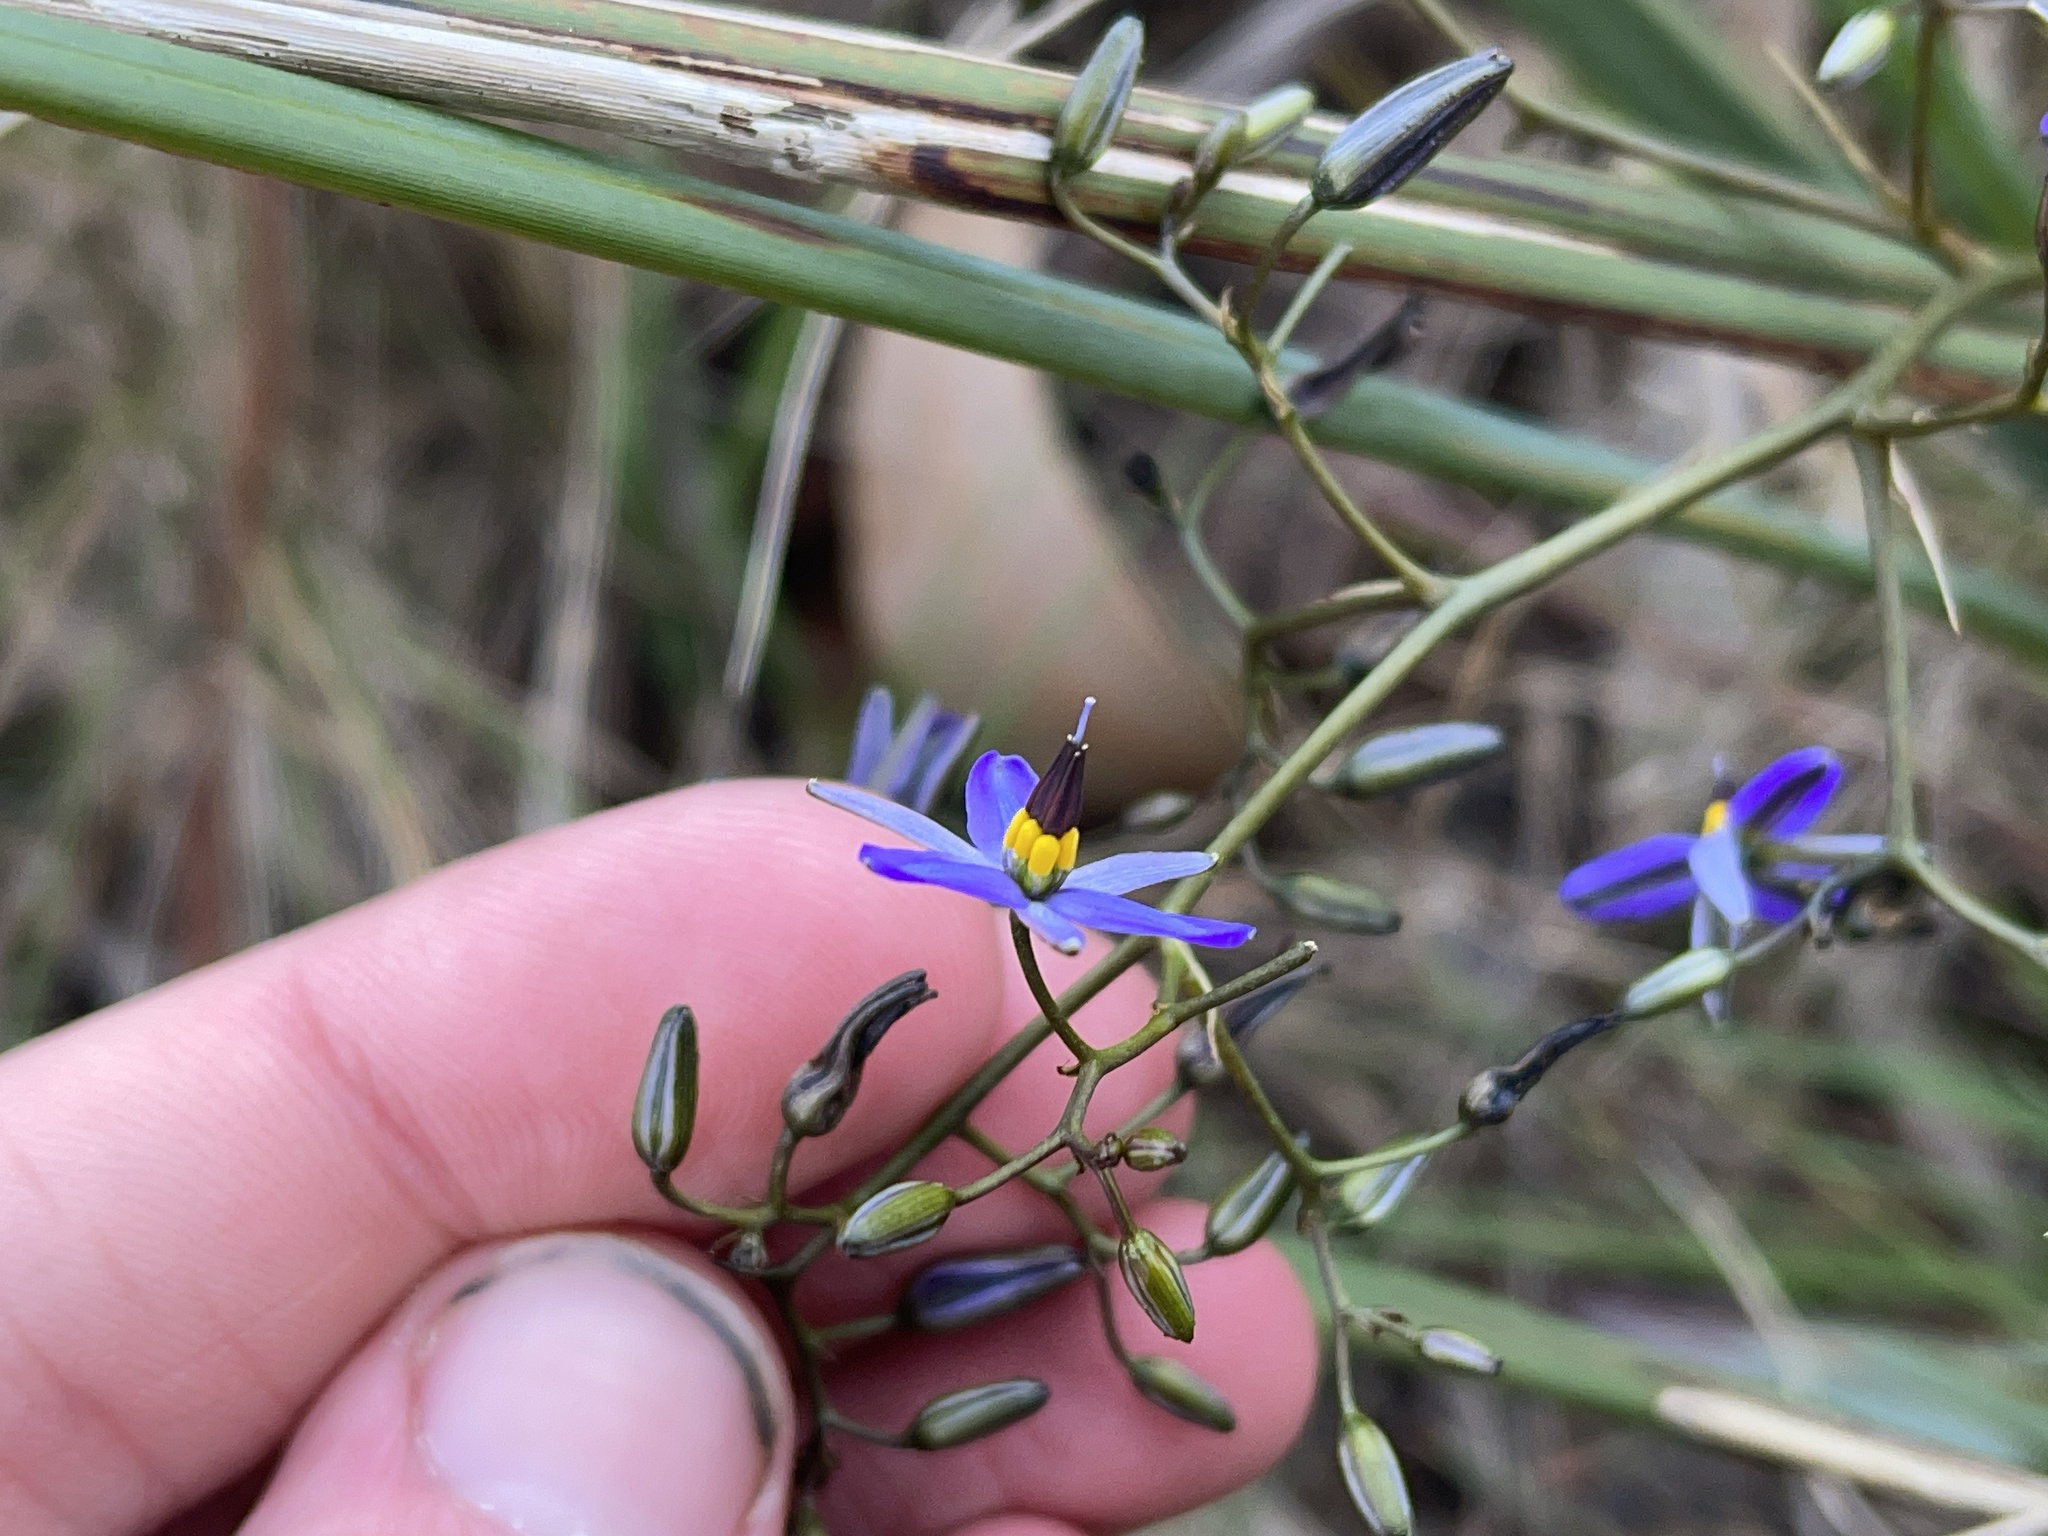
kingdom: Plantae
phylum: Tracheophyta
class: Liliopsida
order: Asparagales
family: Asphodelaceae
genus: Dianella
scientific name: Dianella revoluta
